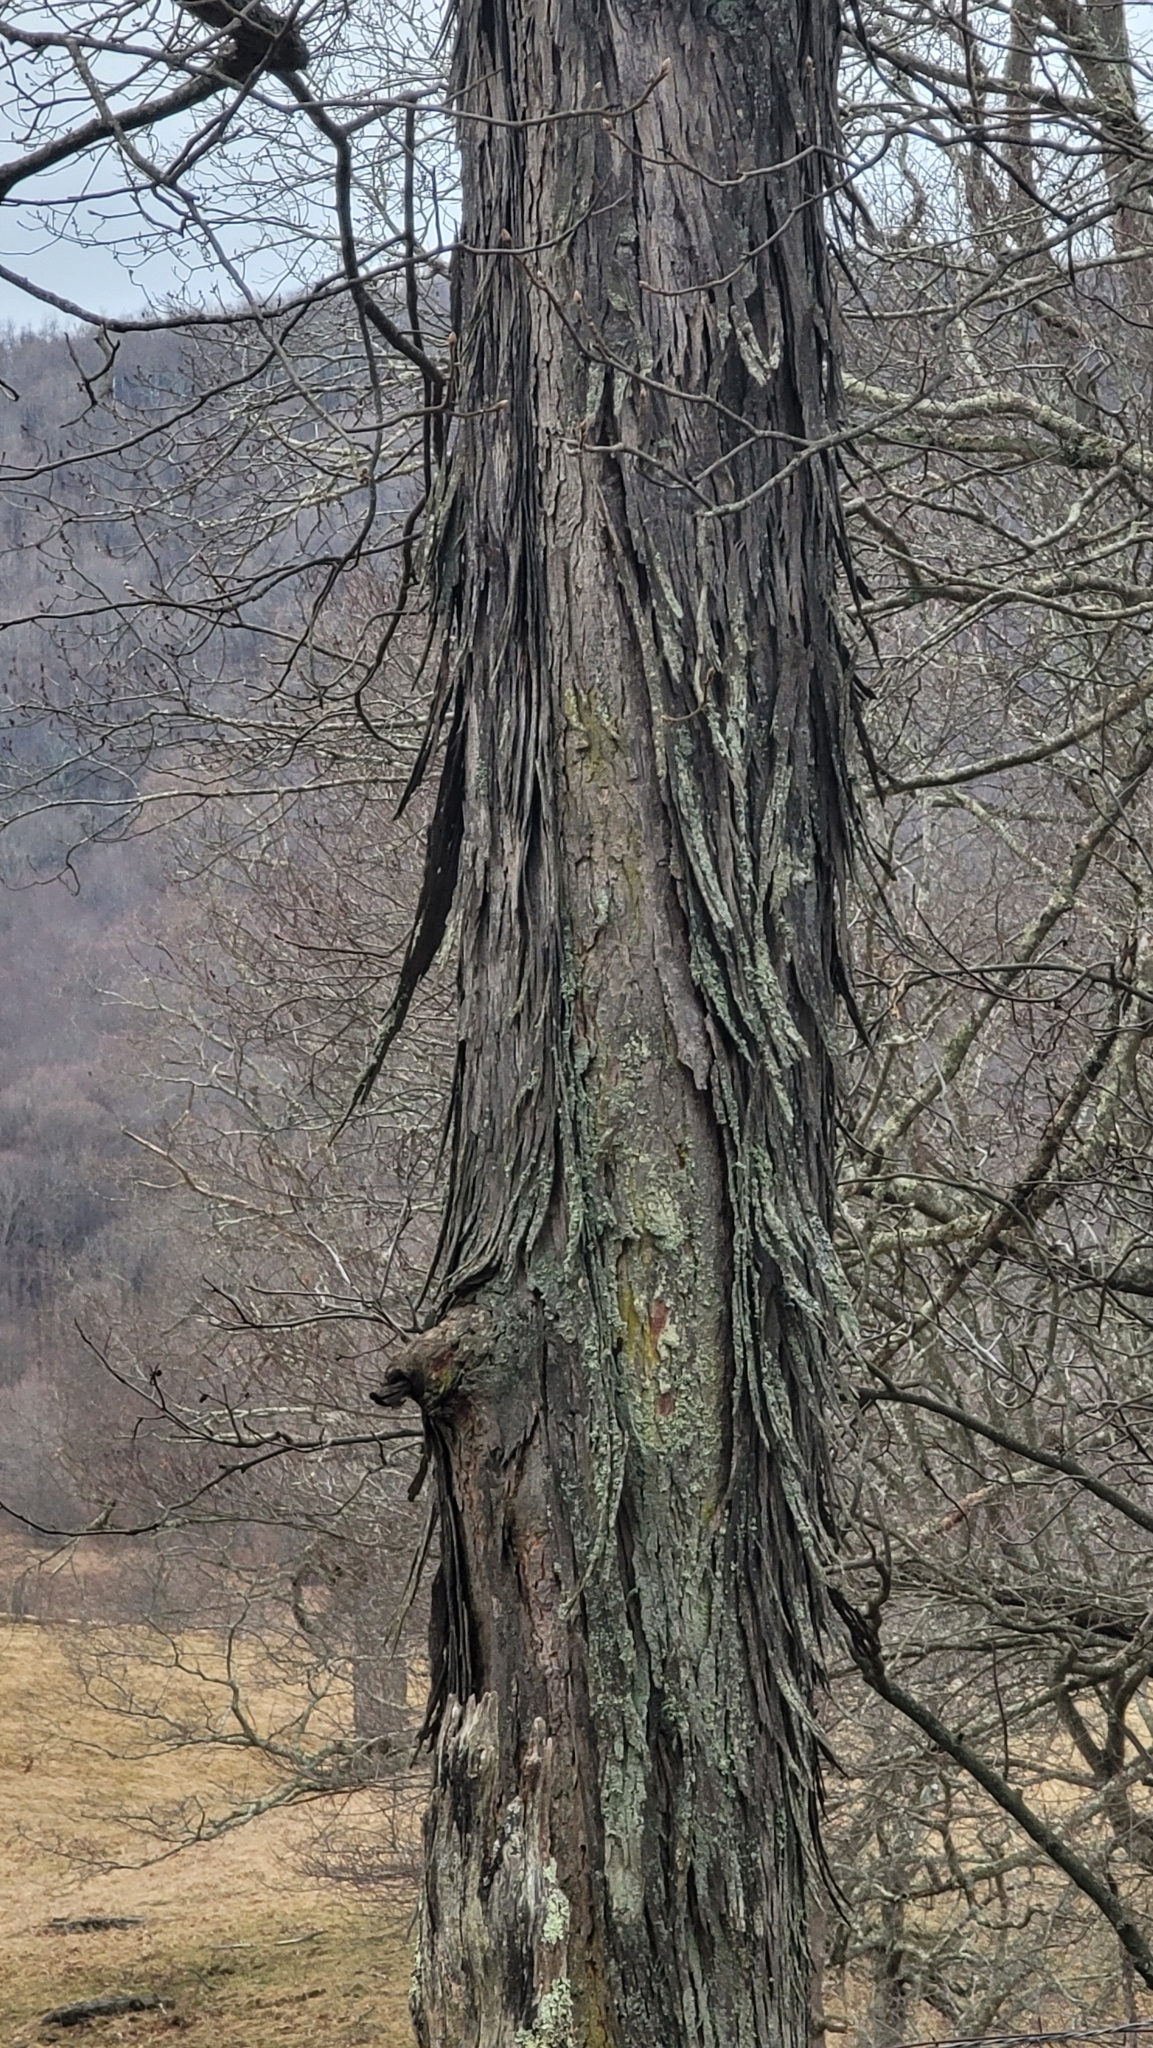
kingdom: Plantae
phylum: Tracheophyta
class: Magnoliopsida
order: Fagales
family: Juglandaceae
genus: Carya
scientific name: Carya ovata
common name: Shagbark hickory
